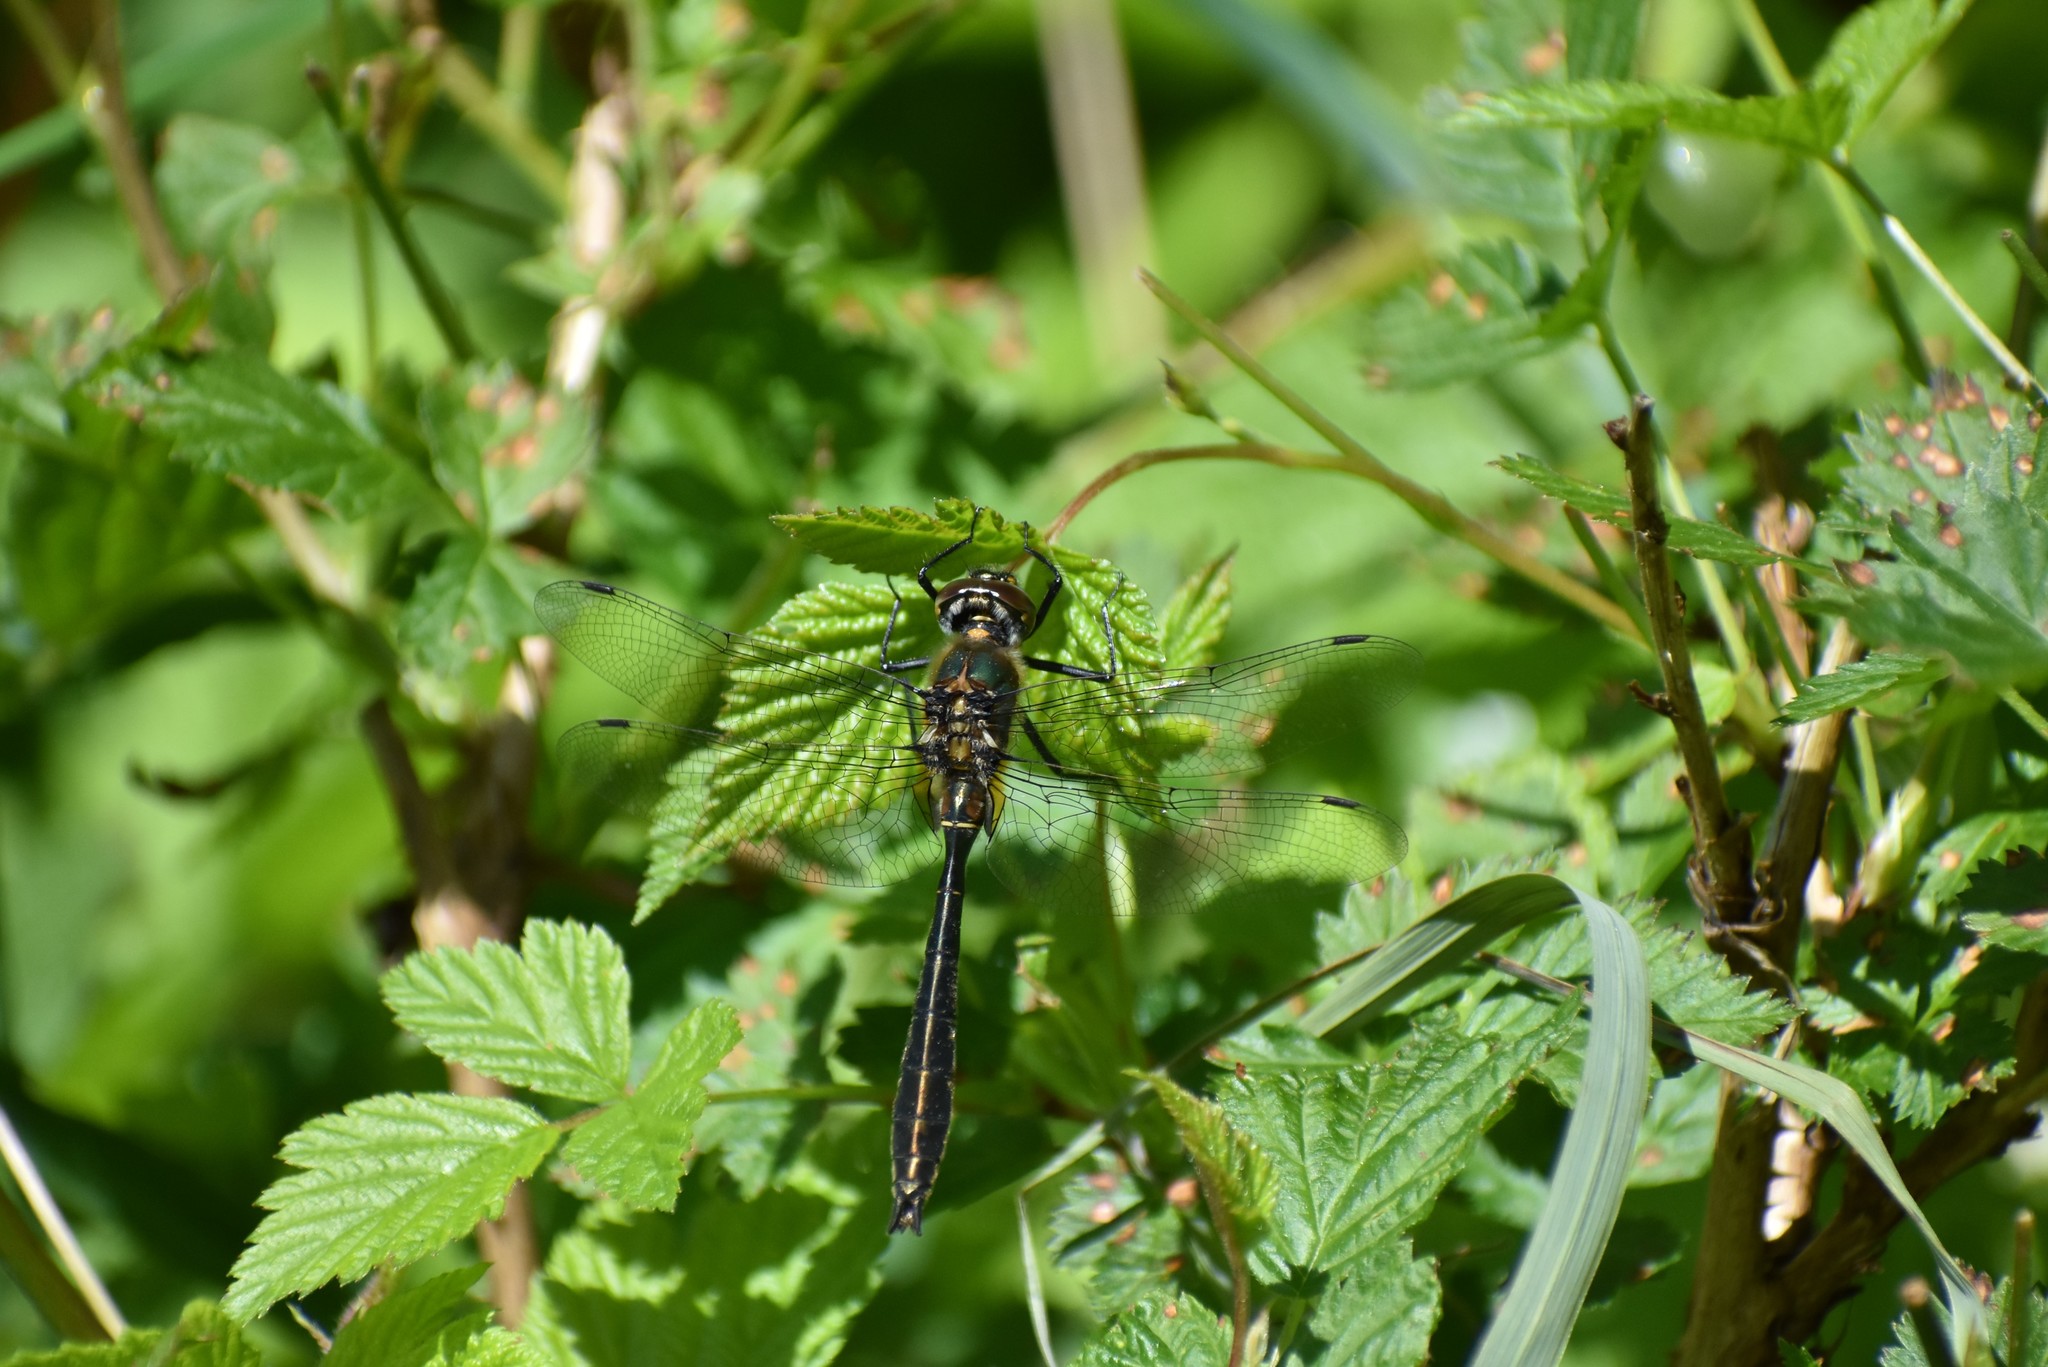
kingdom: Animalia
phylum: Arthropoda
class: Insecta
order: Odonata
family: Corduliidae
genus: Cordulia
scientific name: Cordulia shurtleffii
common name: American emerald
